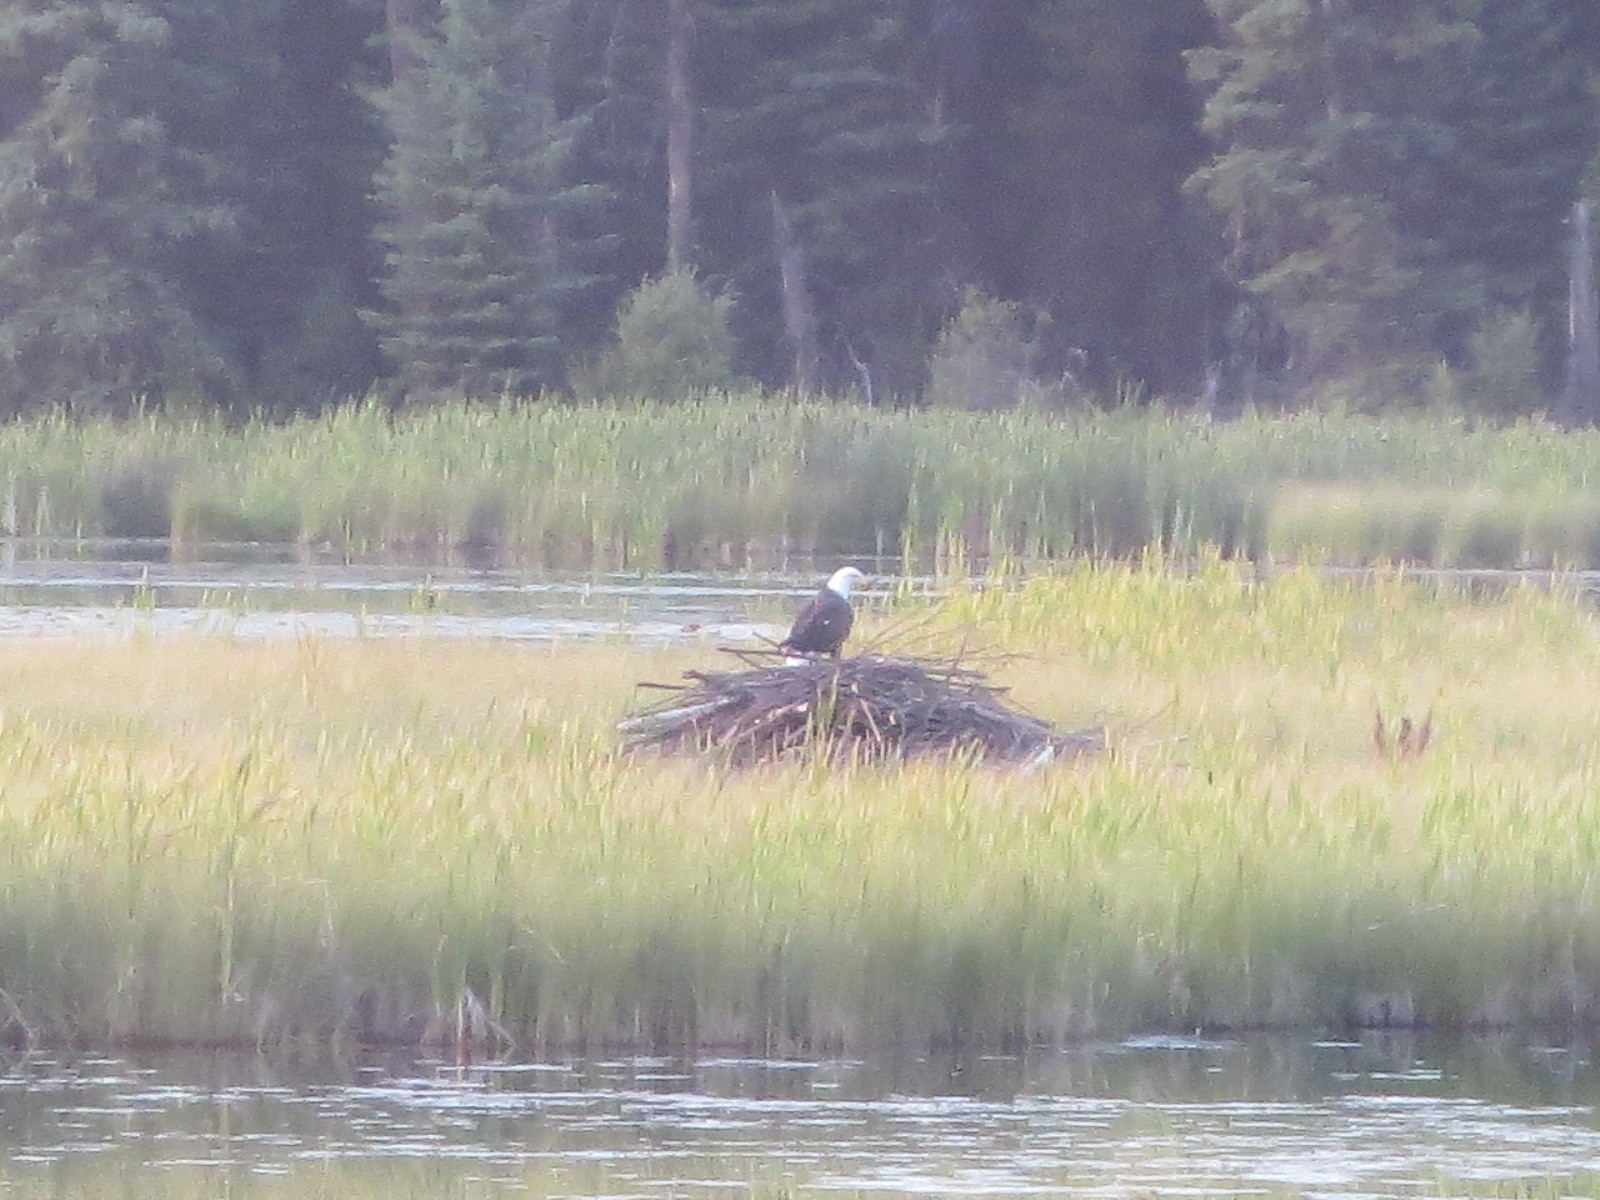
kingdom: Animalia
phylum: Chordata
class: Aves
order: Accipitriformes
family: Accipitridae
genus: Haliaeetus
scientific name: Haliaeetus leucocephalus
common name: Bald eagle
